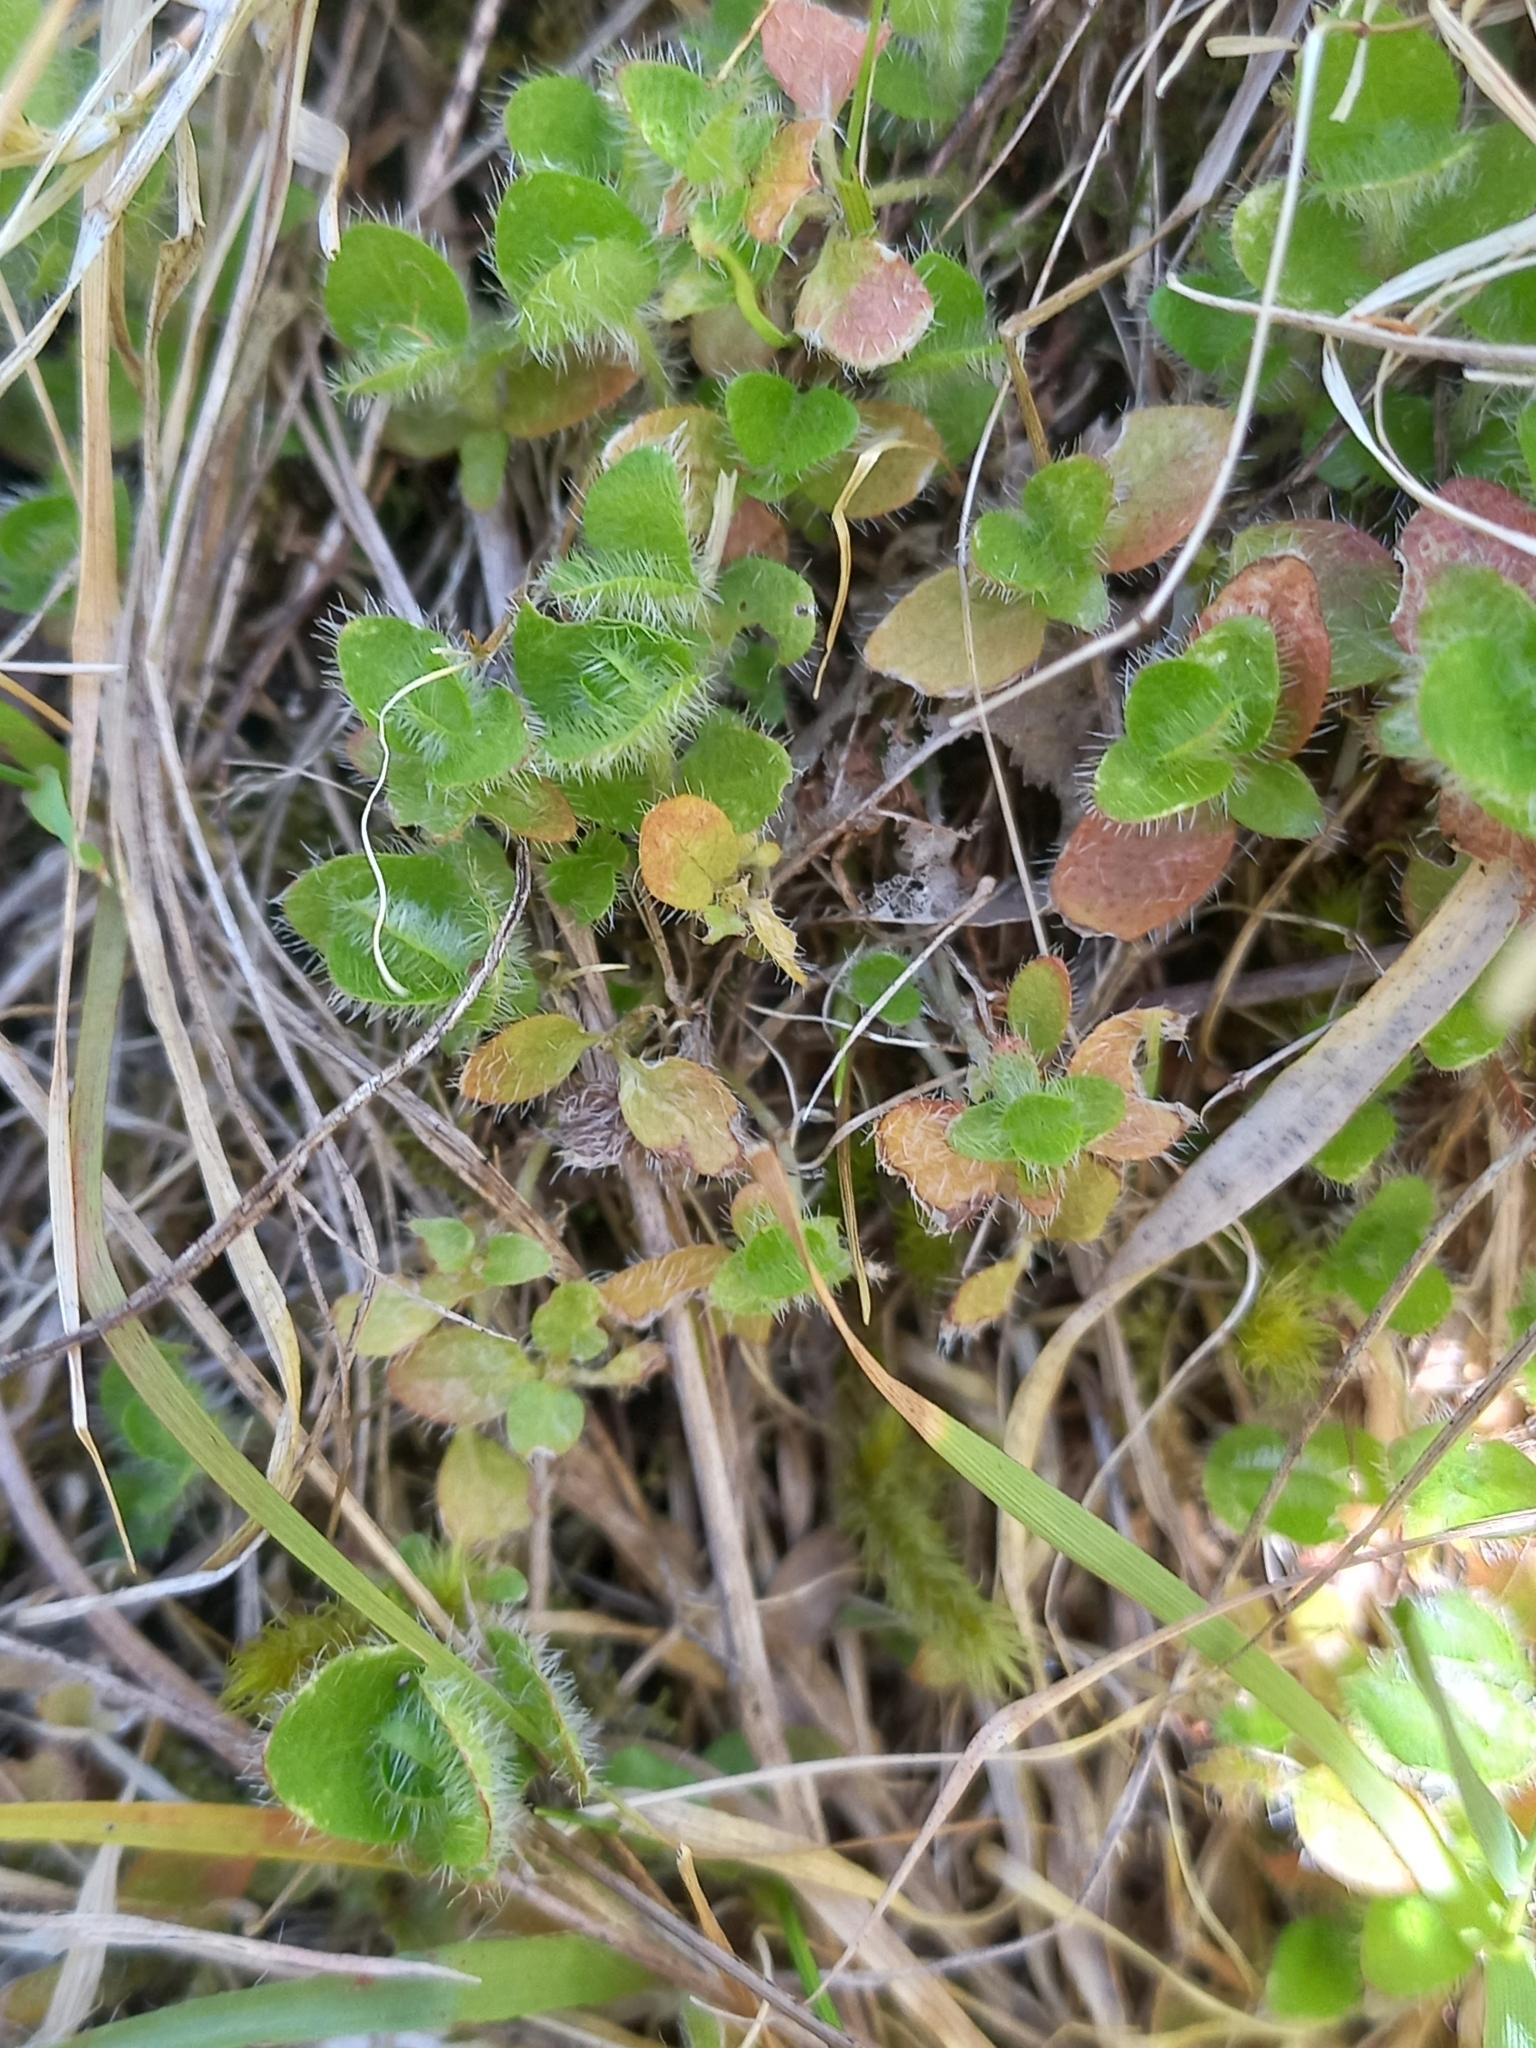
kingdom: Plantae
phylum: Tracheophyta
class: Magnoliopsida
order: Gentianales
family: Rubiaceae
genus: Leptostigma
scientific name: Leptostigma setulosum
